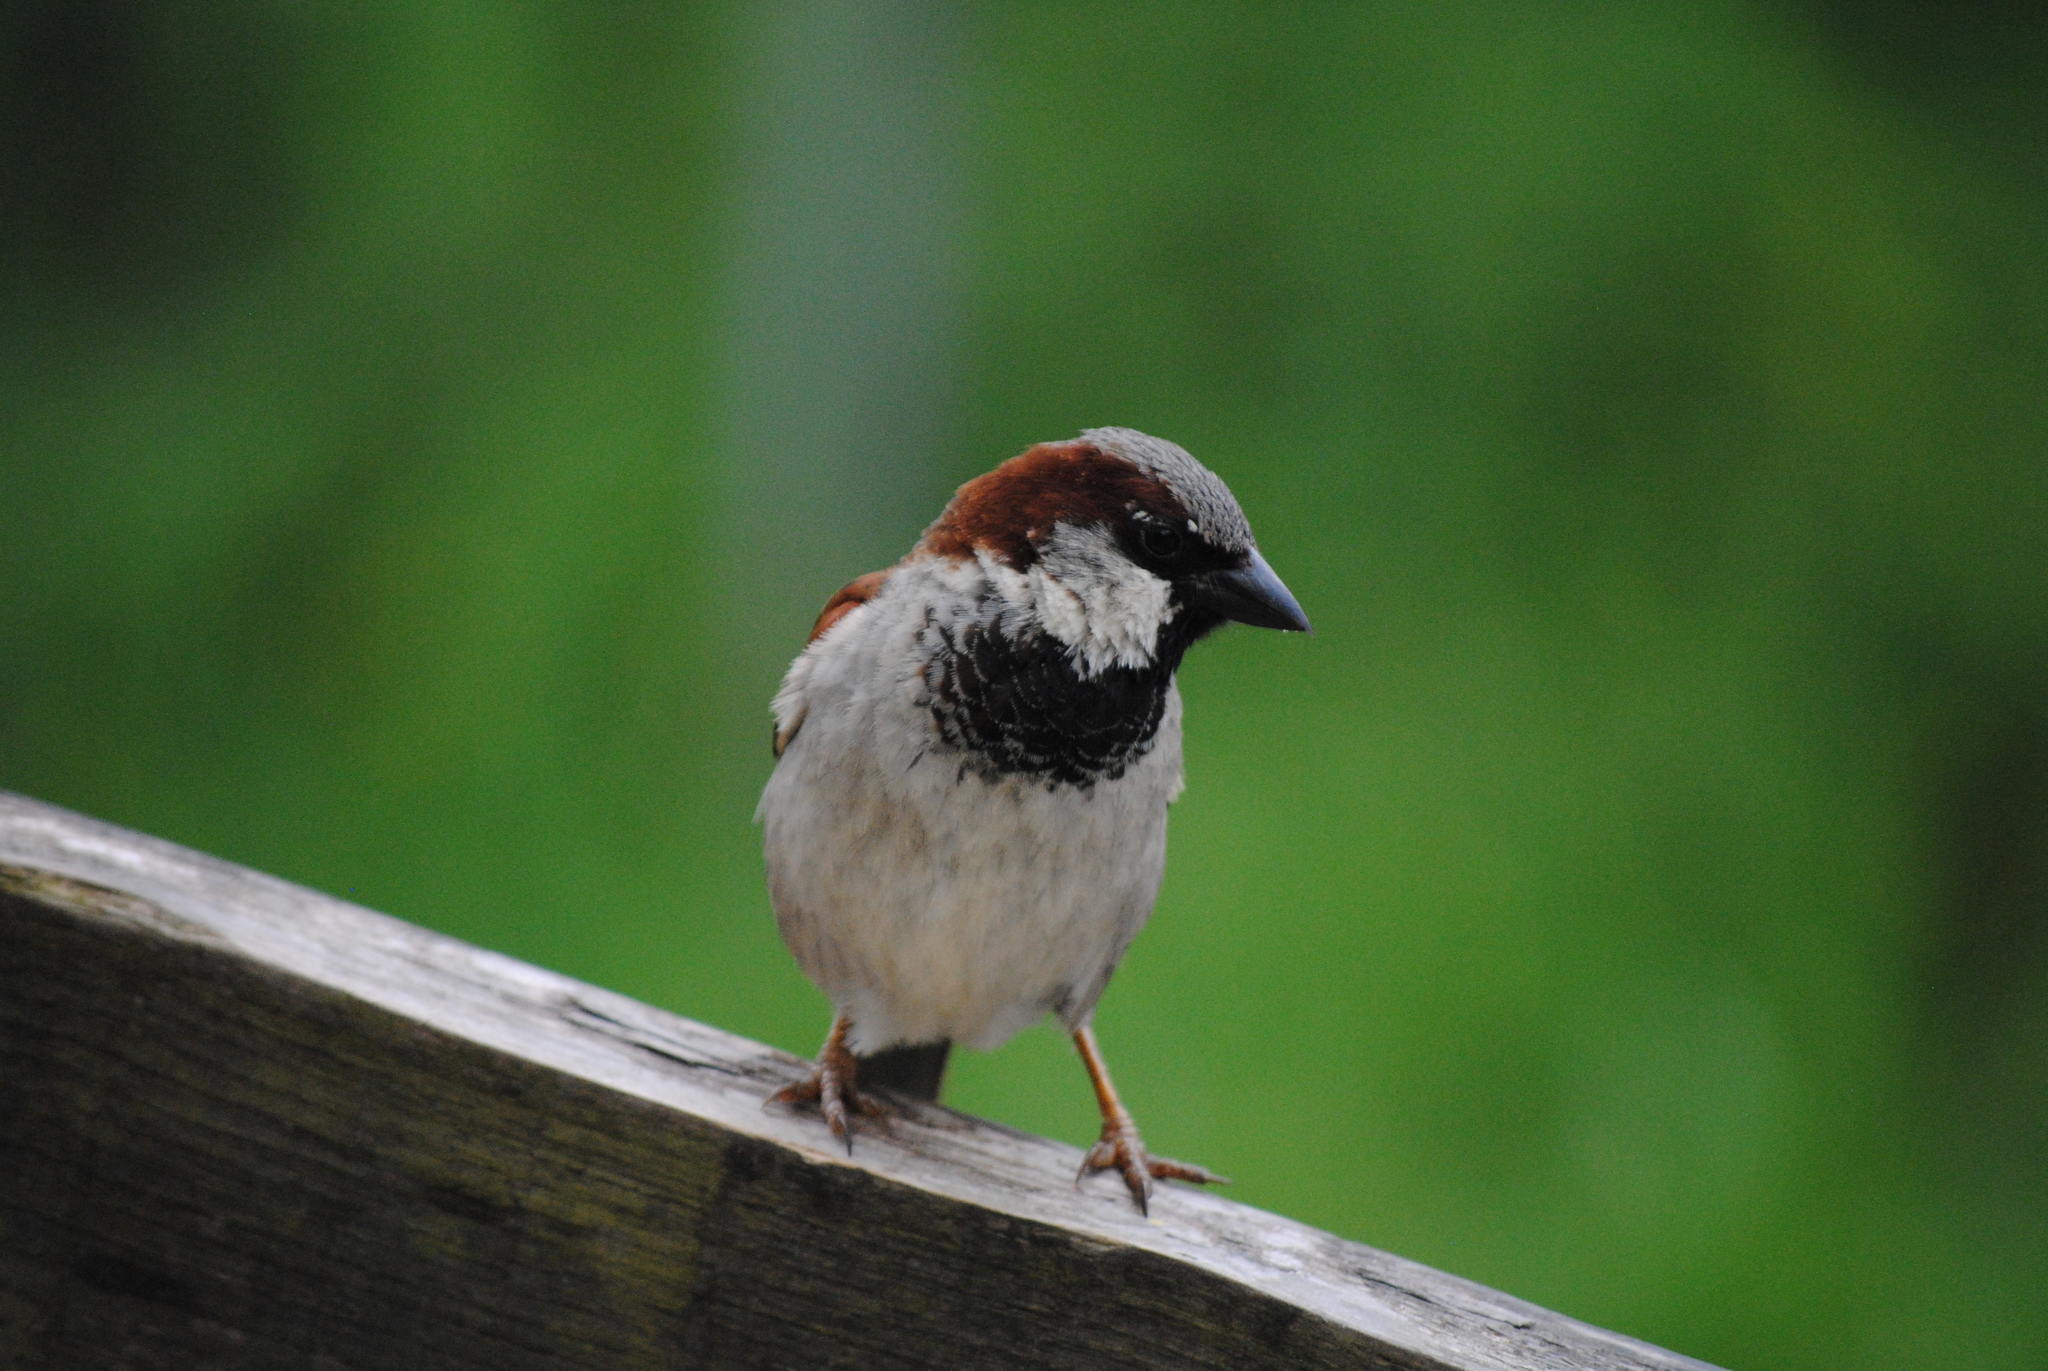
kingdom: Animalia
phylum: Chordata
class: Aves
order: Passeriformes
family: Passeridae
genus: Passer
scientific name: Passer domesticus
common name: House sparrow
